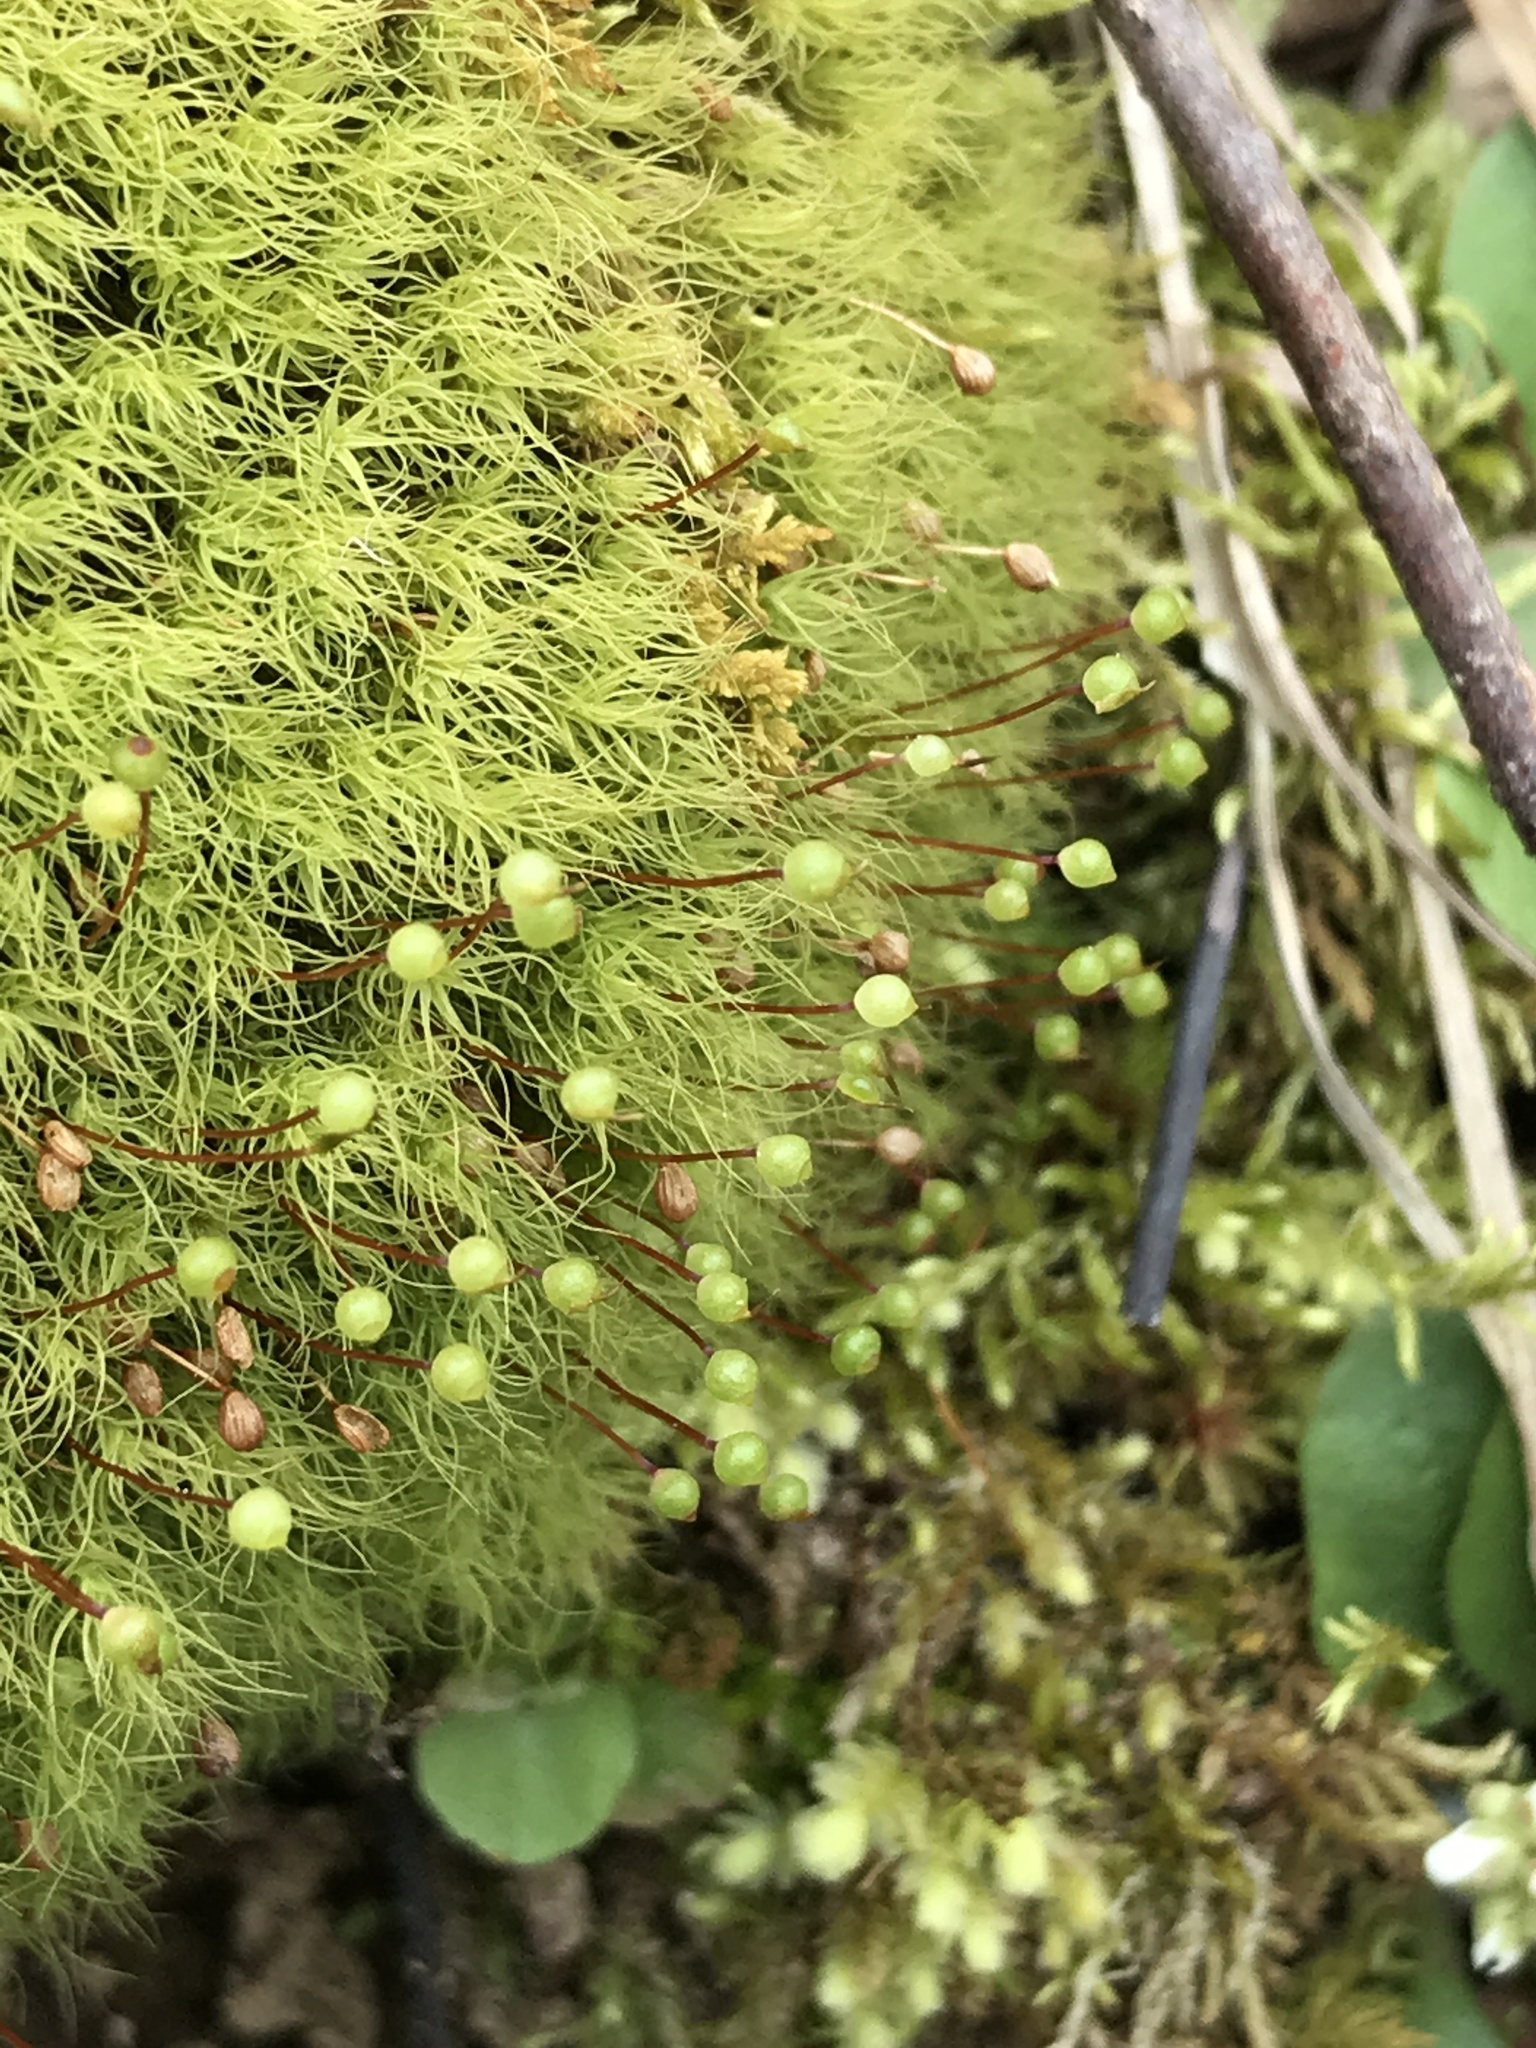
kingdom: Plantae
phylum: Bryophyta
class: Bryopsida
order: Bartramiales
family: Bartramiaceae
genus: Bartramia
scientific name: Bartramia ithyphylla
